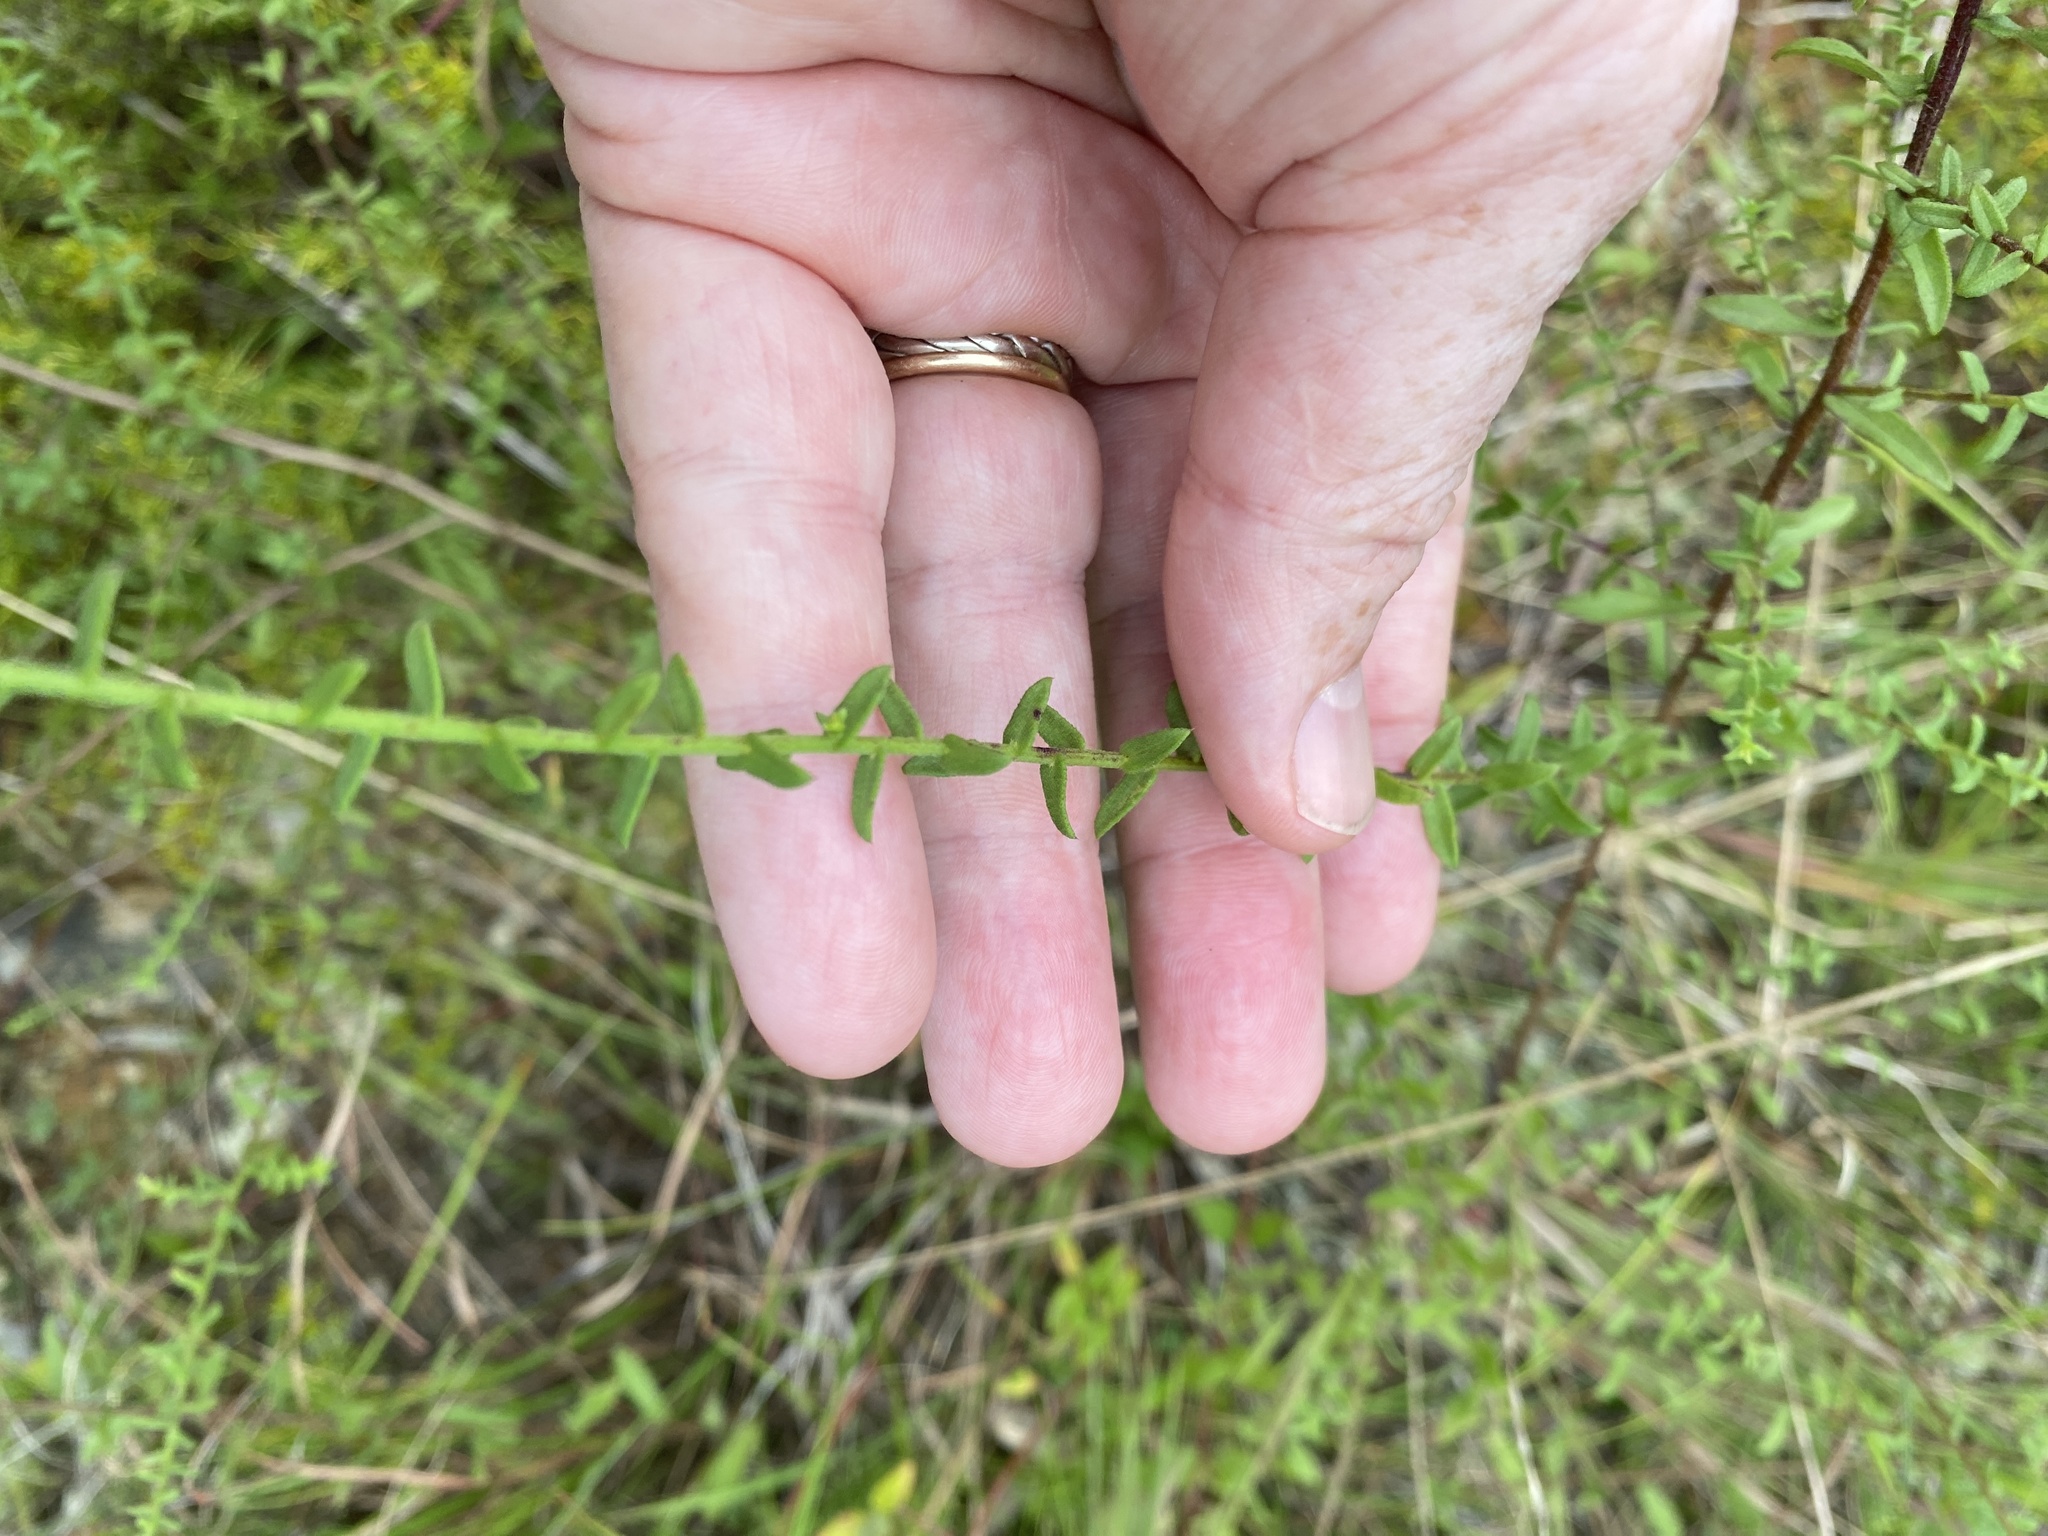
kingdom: Plantae
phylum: Tracheophyta
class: Magnoliopsida
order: Asterales
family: Asteraceae
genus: Symphyotrichum
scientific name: Symphyotrichum grandiflorum
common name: Big-head aster
